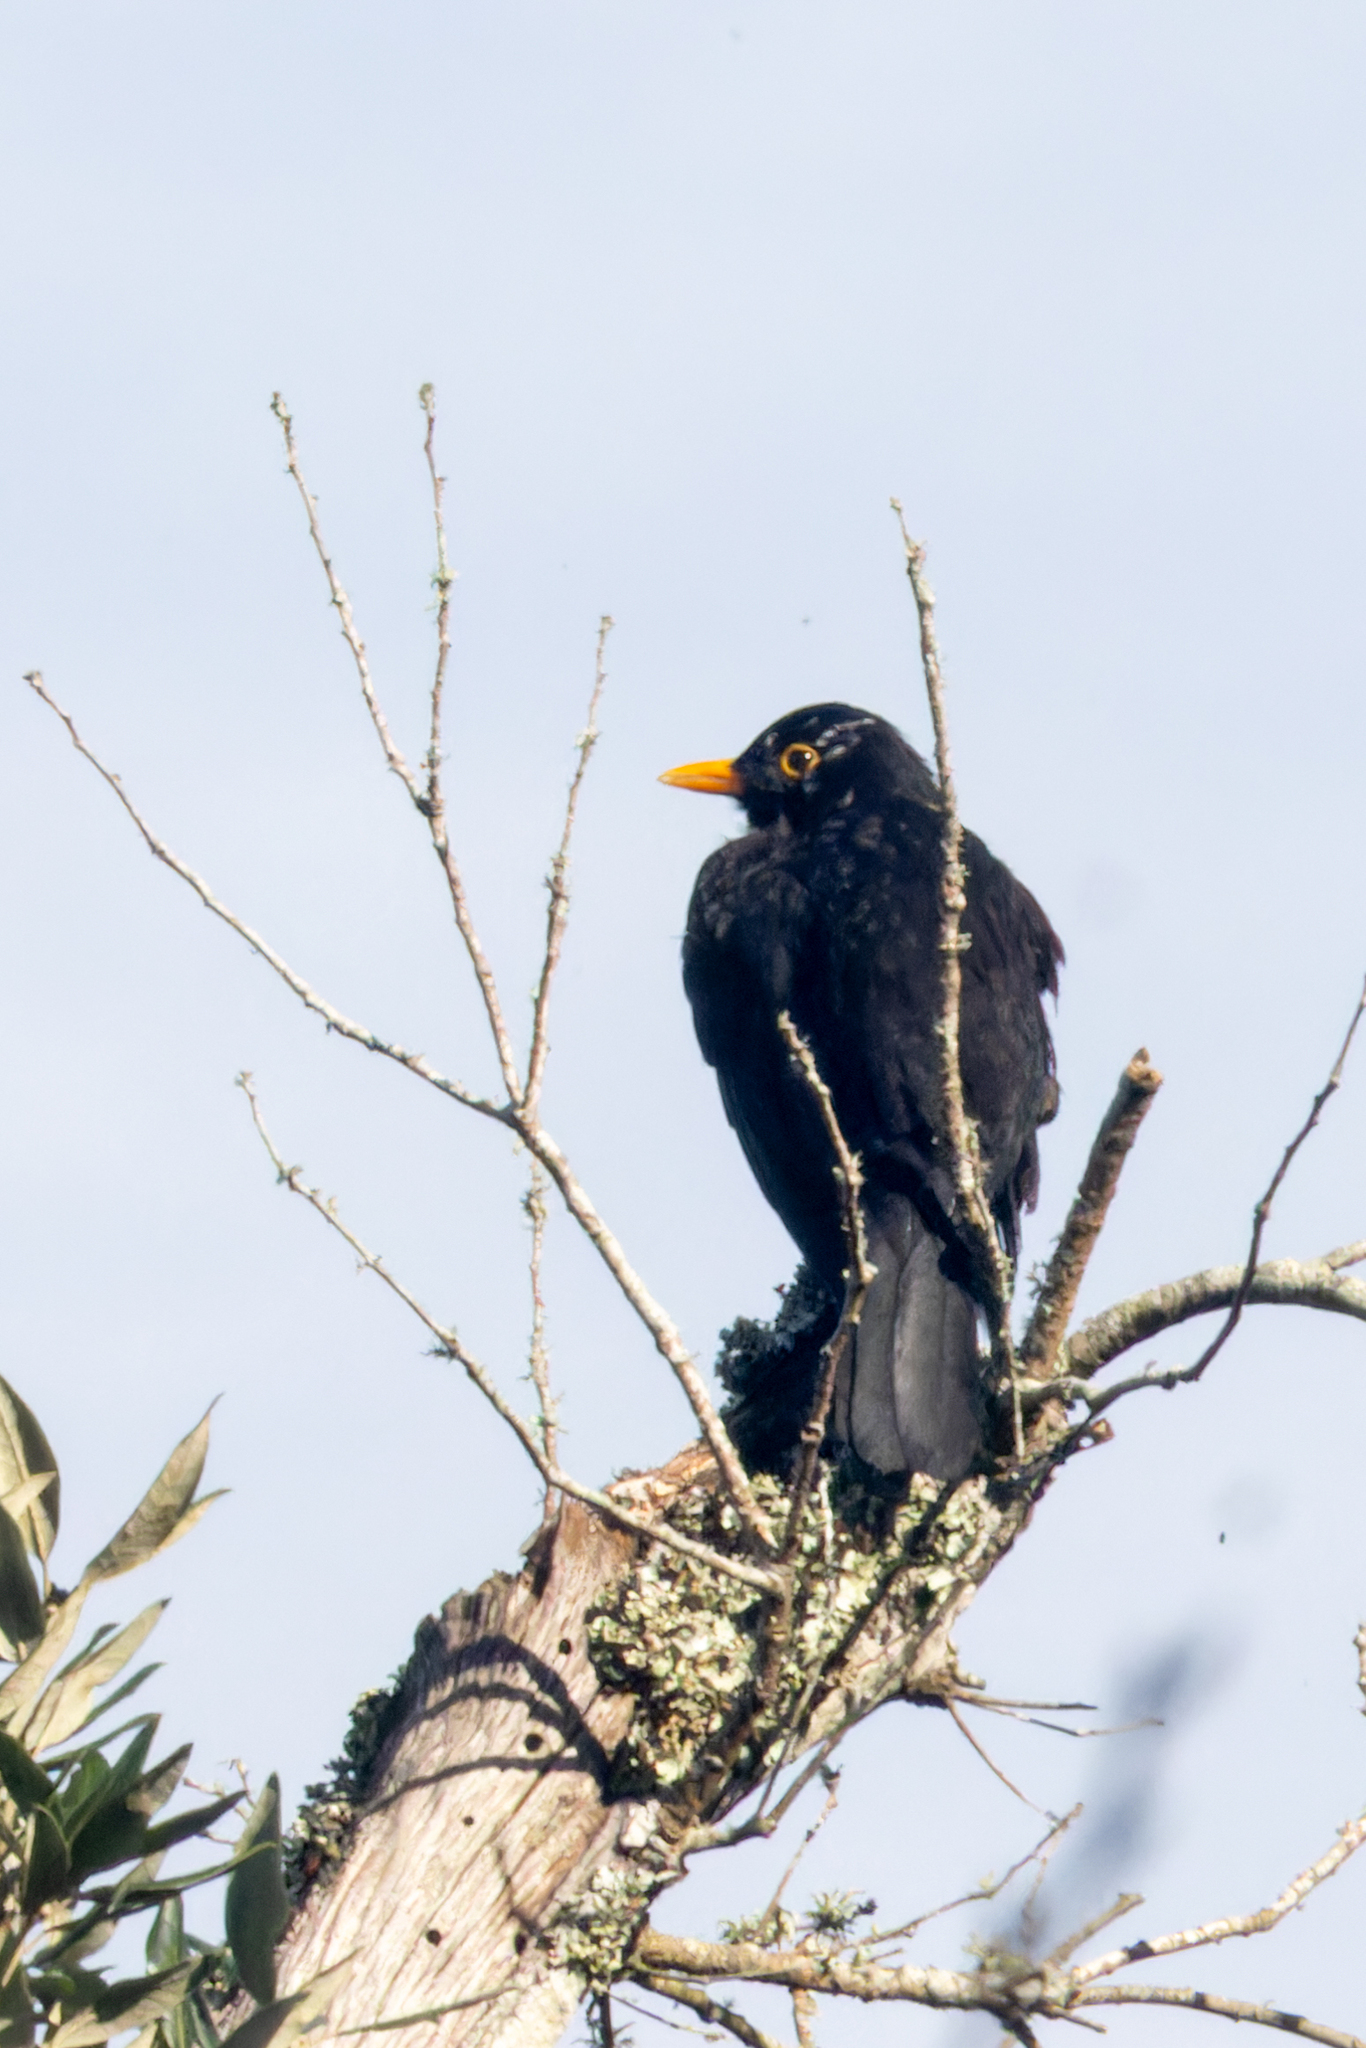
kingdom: Animalia
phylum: Chordata
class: Aves
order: Passeriformes
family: Turdidae
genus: Turdus
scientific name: Turdus merula
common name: Common blackbird
